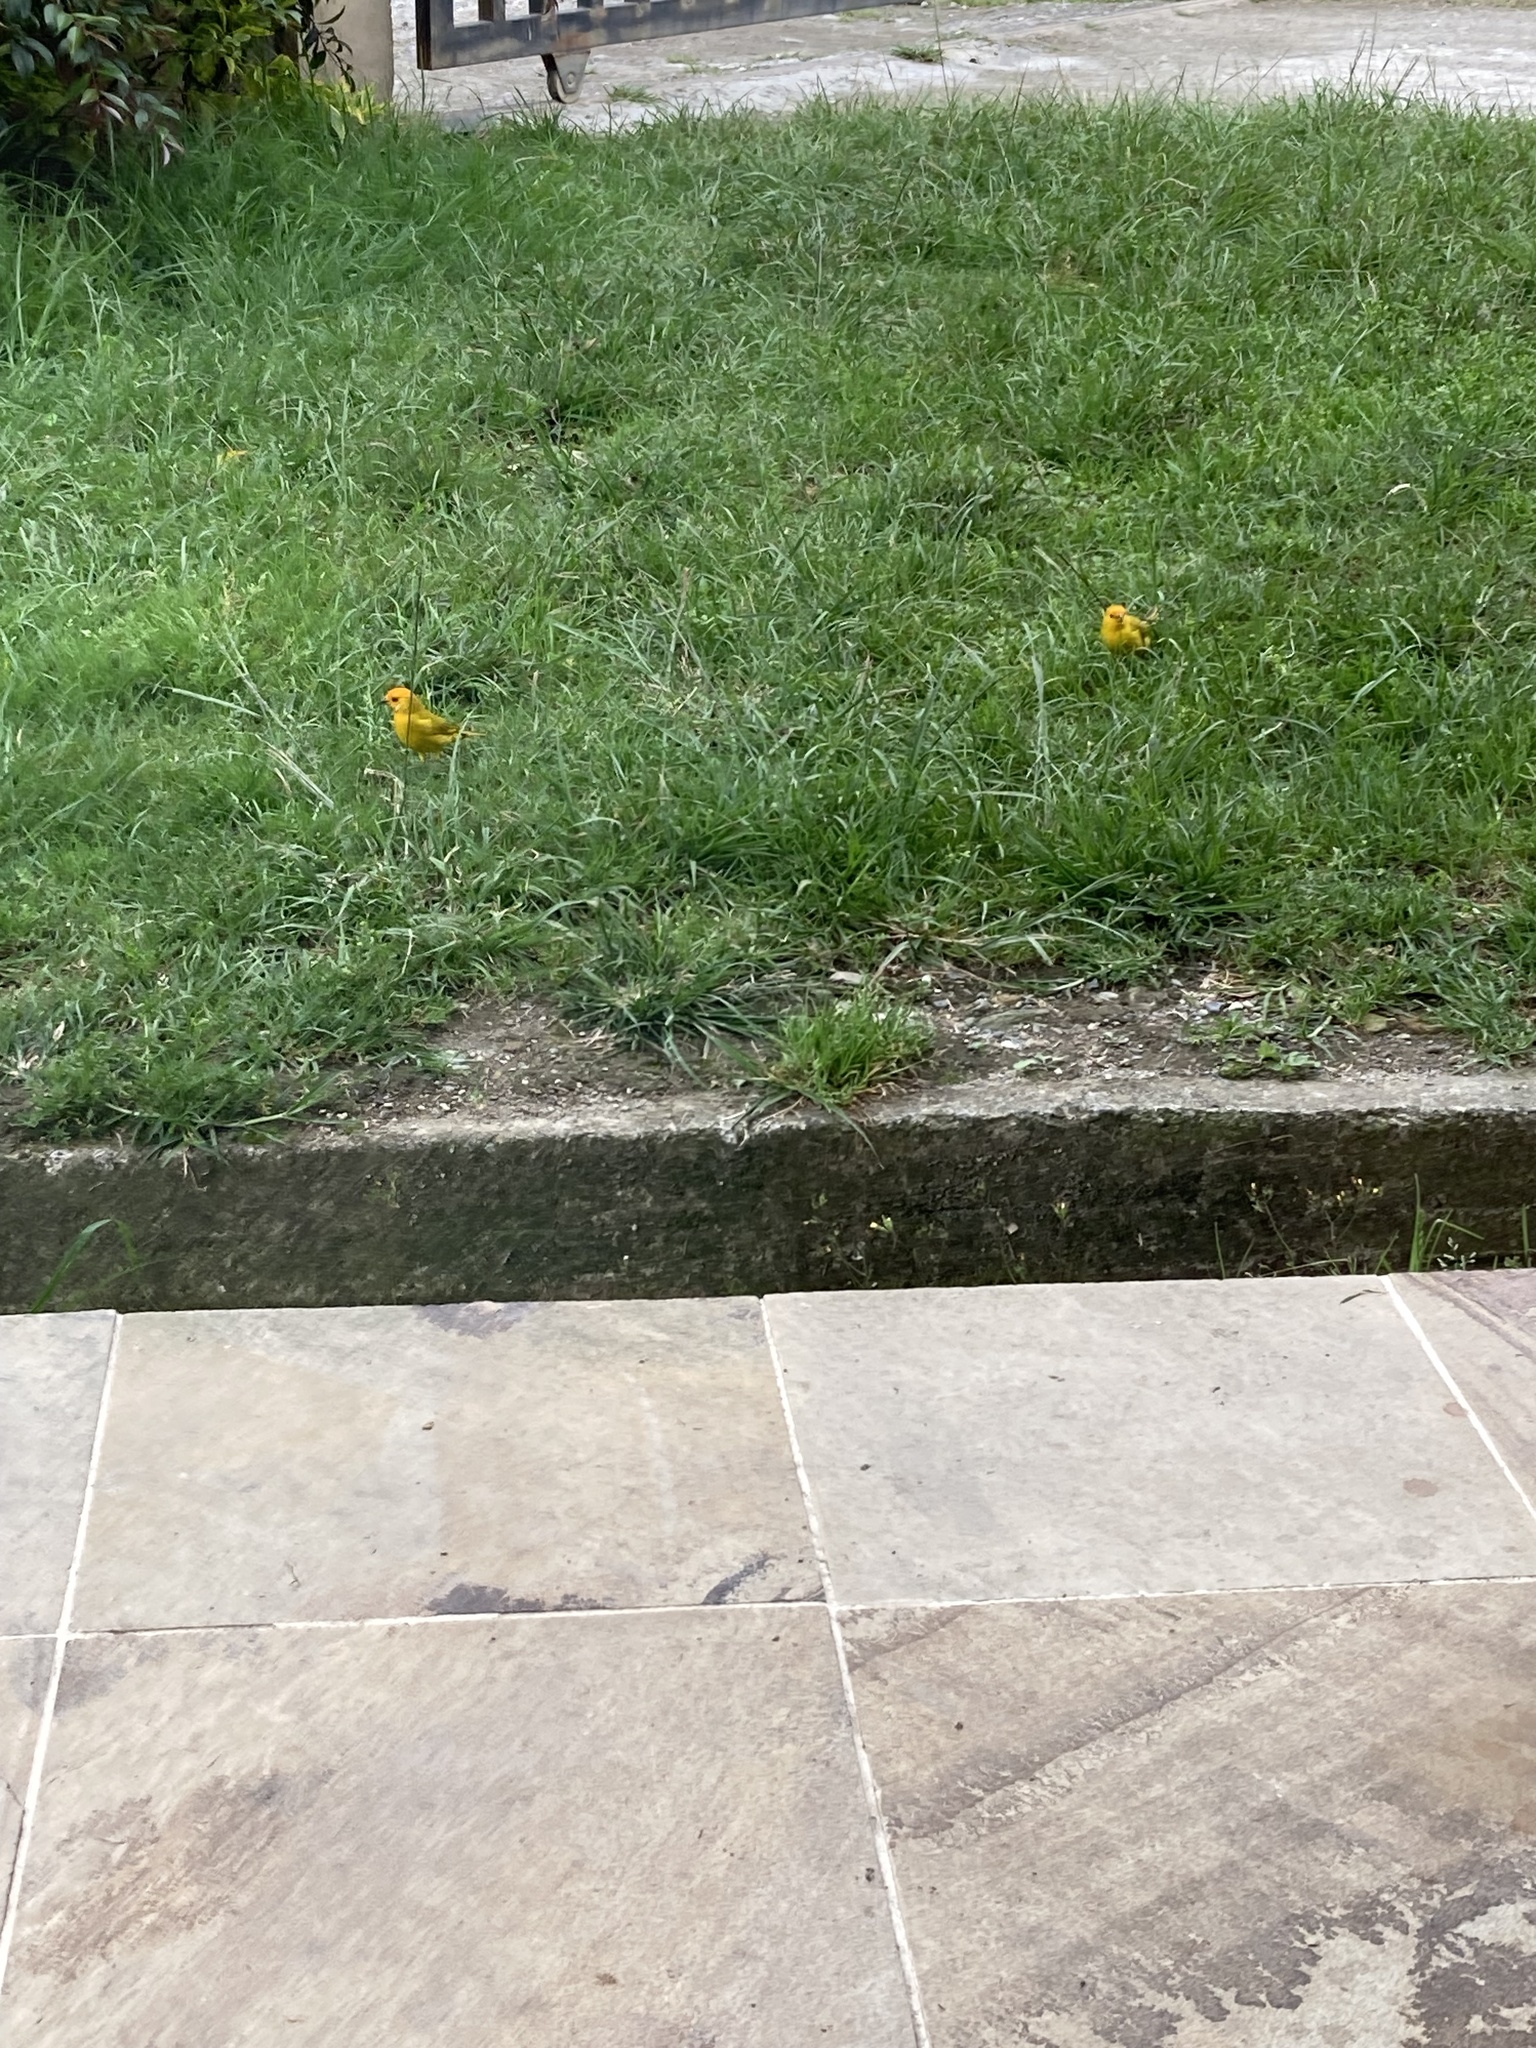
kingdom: Animalia
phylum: Chordata
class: Aves
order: Passeriformes
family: Thraupidae
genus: Sicalis
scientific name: Sicalis flaveola
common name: Saffron finch
